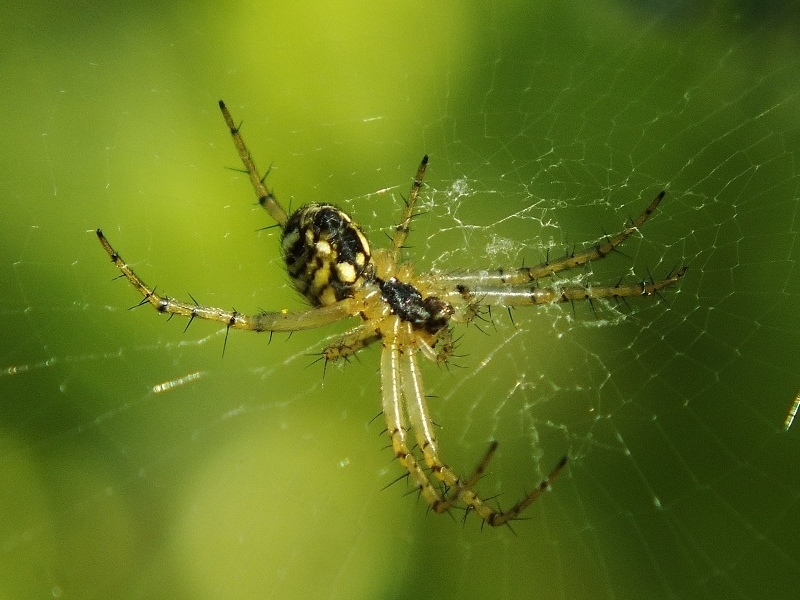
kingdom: Animalia
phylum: Arthropoda
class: Arachnida
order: Araneae
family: Araneidae
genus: Mangora
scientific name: Mangora acalypha
